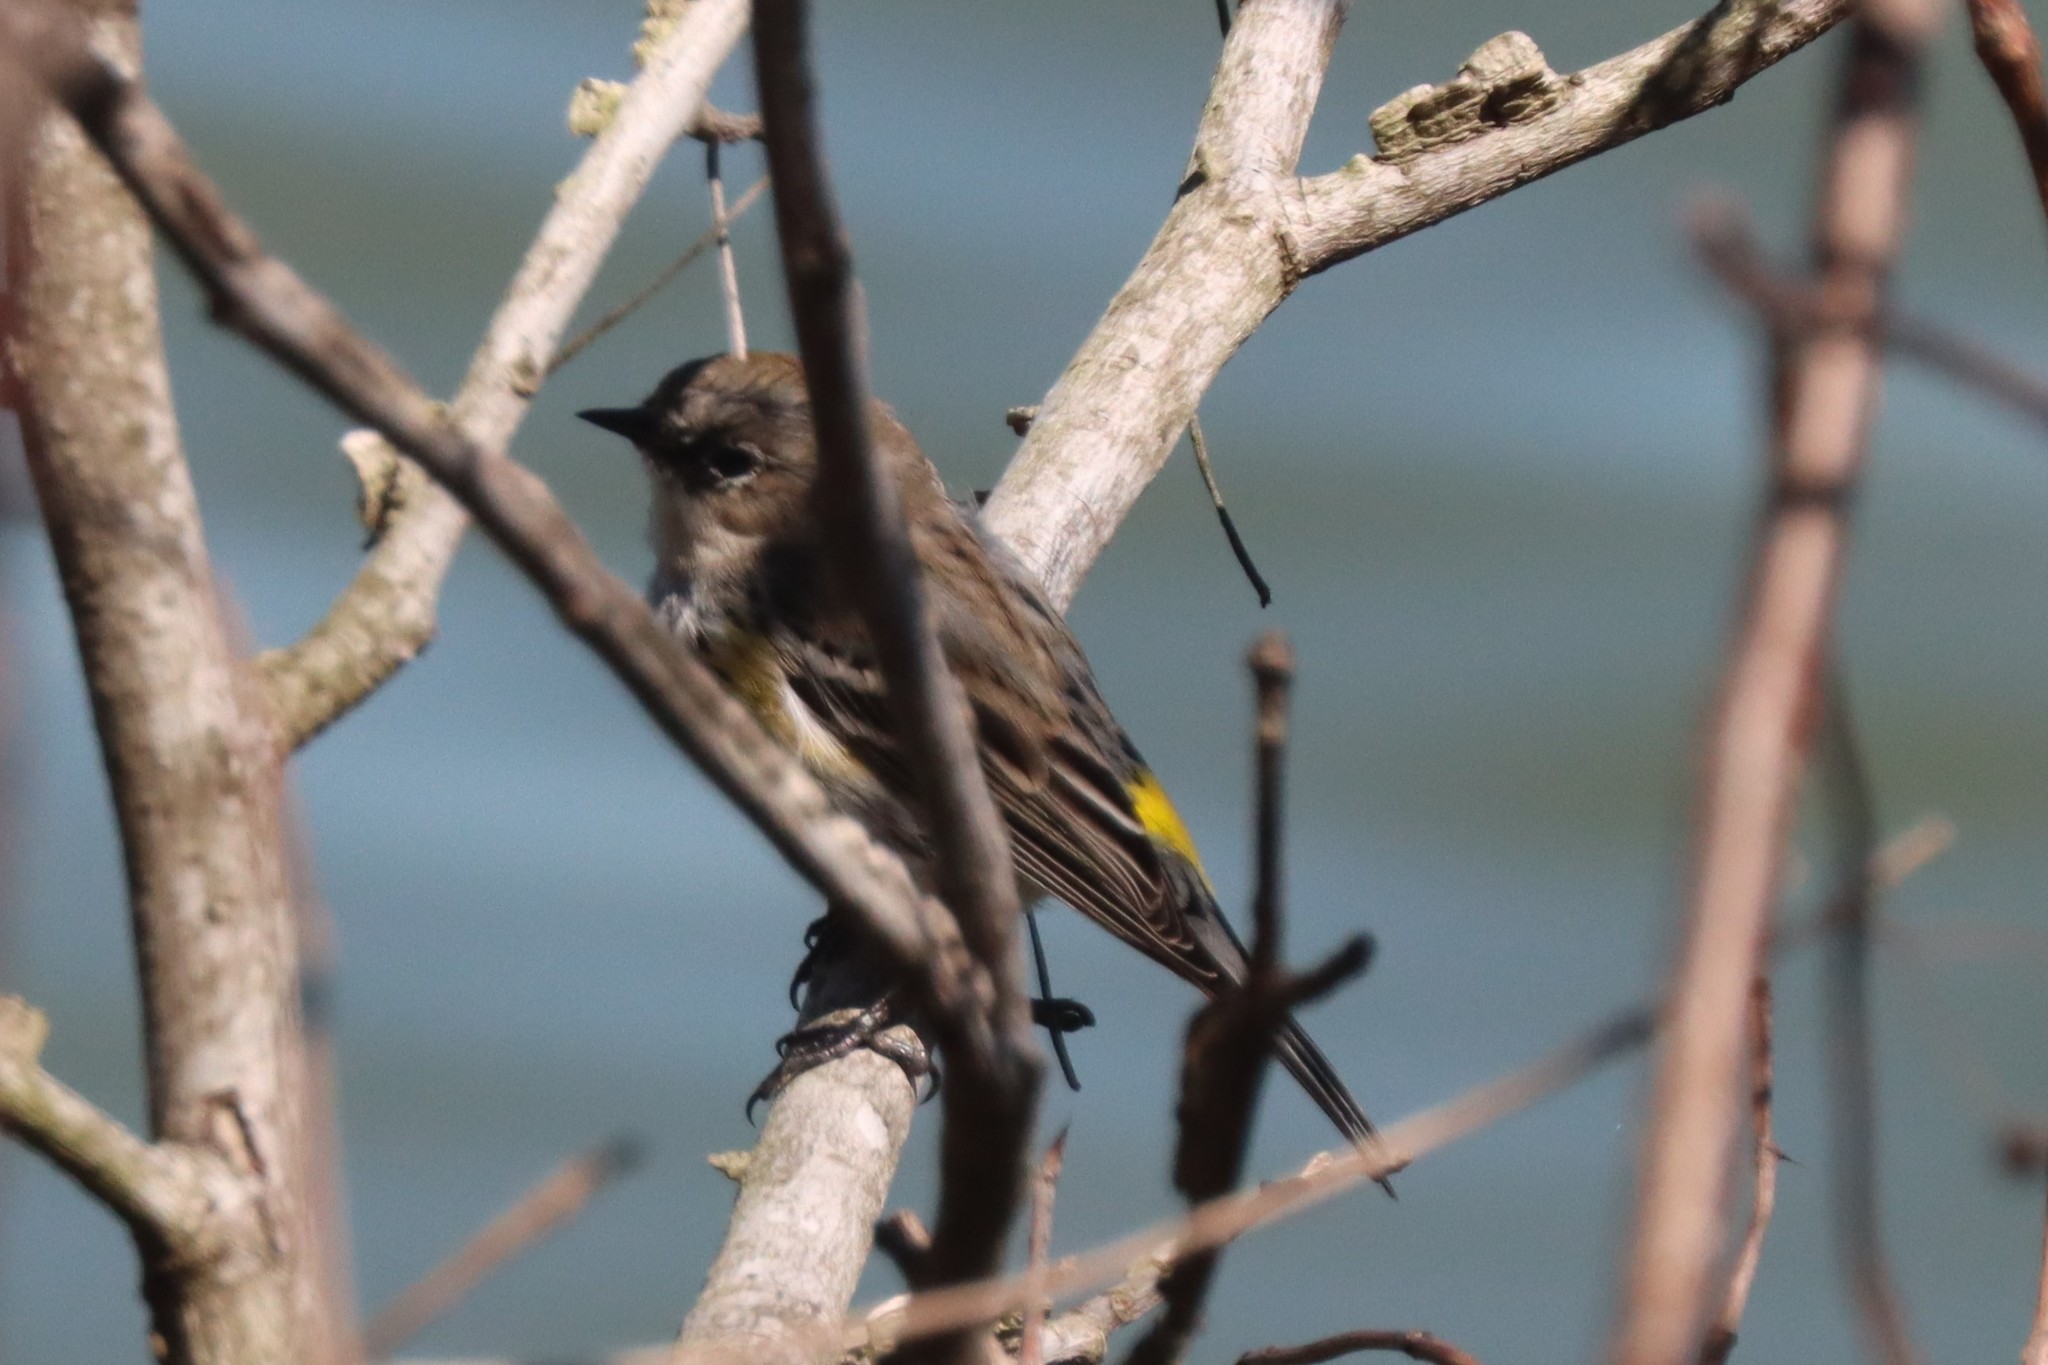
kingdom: Animalia
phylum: Chordata
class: Aves
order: Passeriformes
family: Parulidae
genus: Setophaga
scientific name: Setophaga coronata
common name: Myrtle warbler
